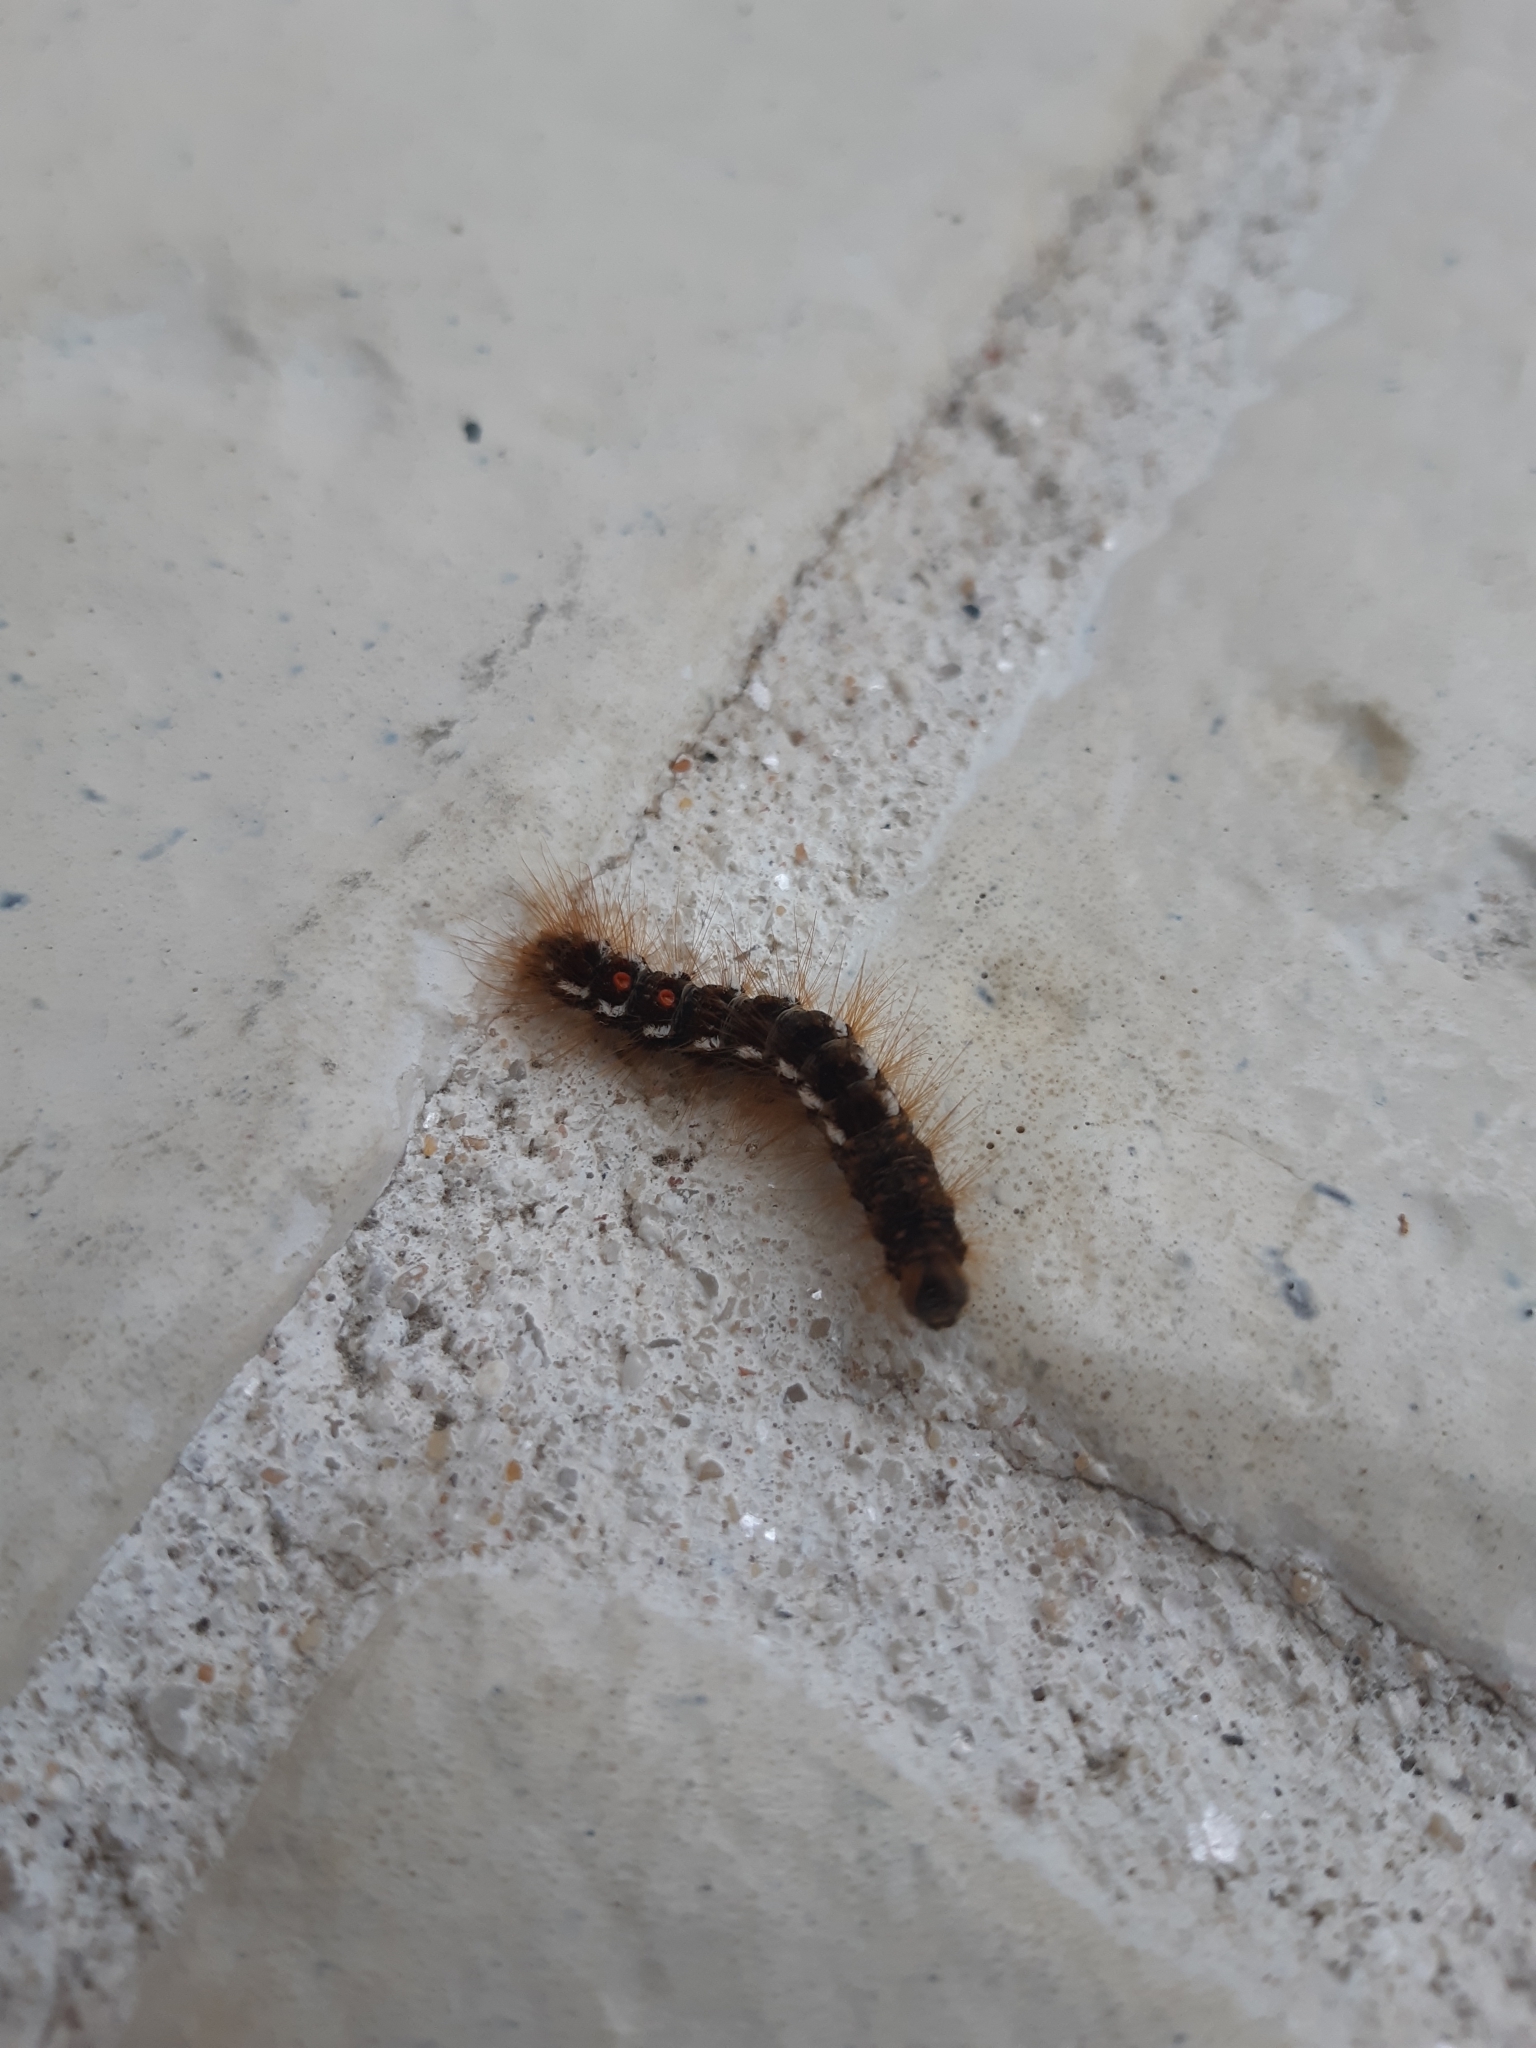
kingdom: Animalia
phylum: Arthropoda
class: Insecta
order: Lepidoptera
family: Erebidae
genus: Euproctis
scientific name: Euproctis chrysorrhoea
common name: Brown-tail
